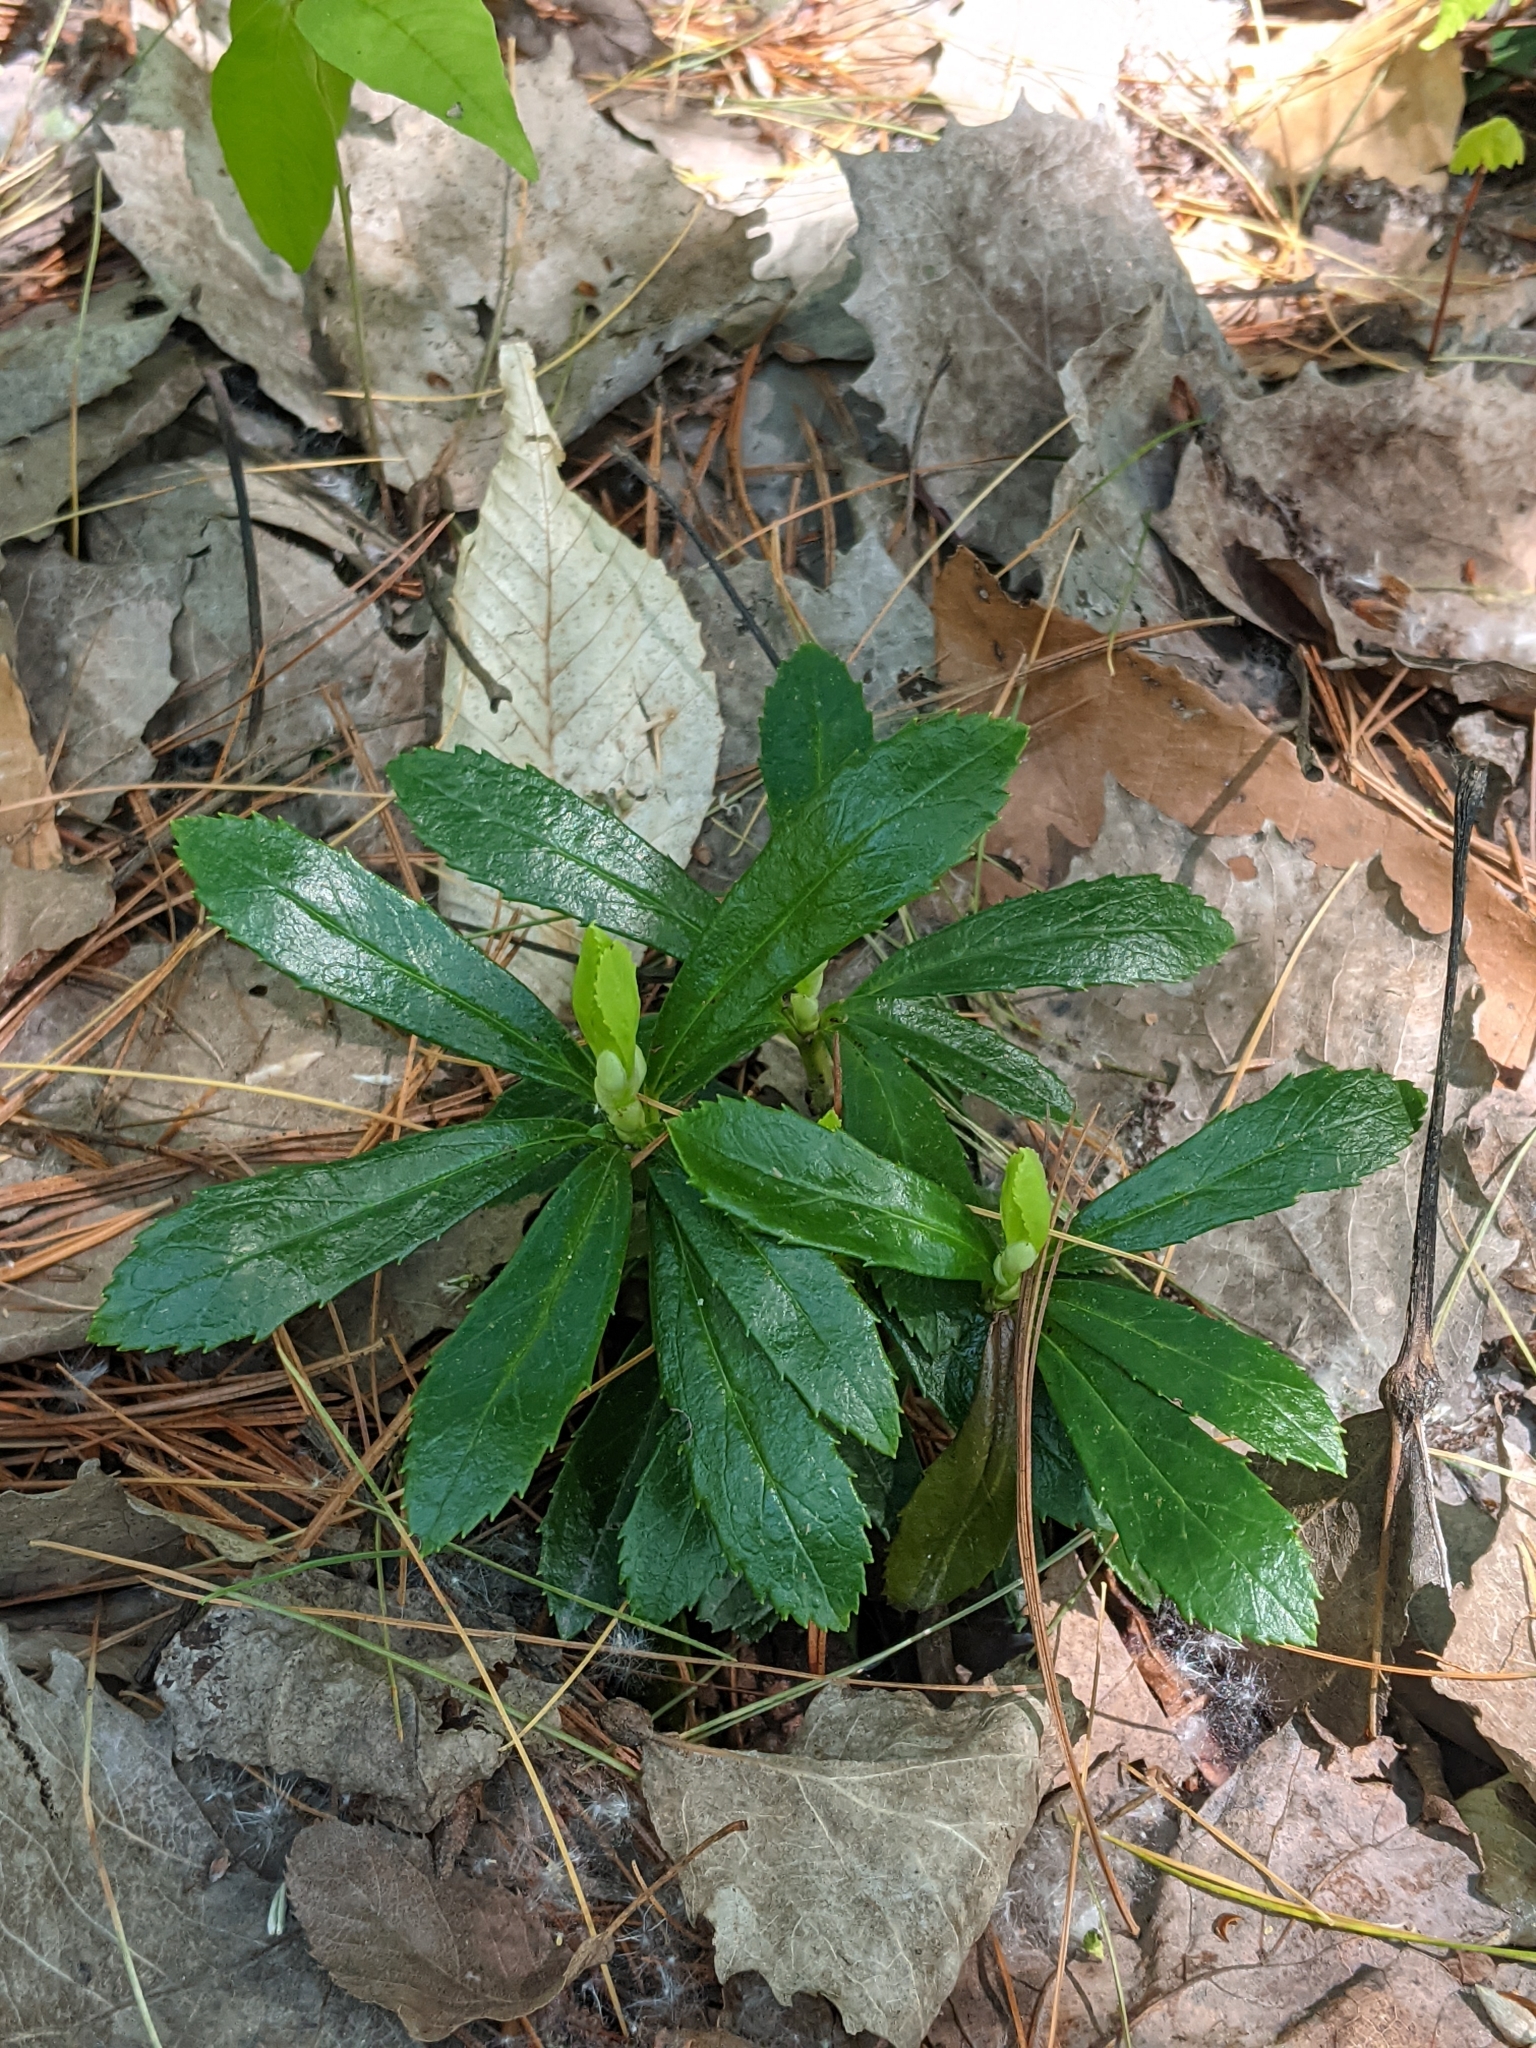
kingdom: Plantae
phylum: Tracheophyta
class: Magnoliopsida
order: Ericales
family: Ericaceae
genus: Chimaphila
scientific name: Chimaphila umbellata
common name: Pipsissewa
